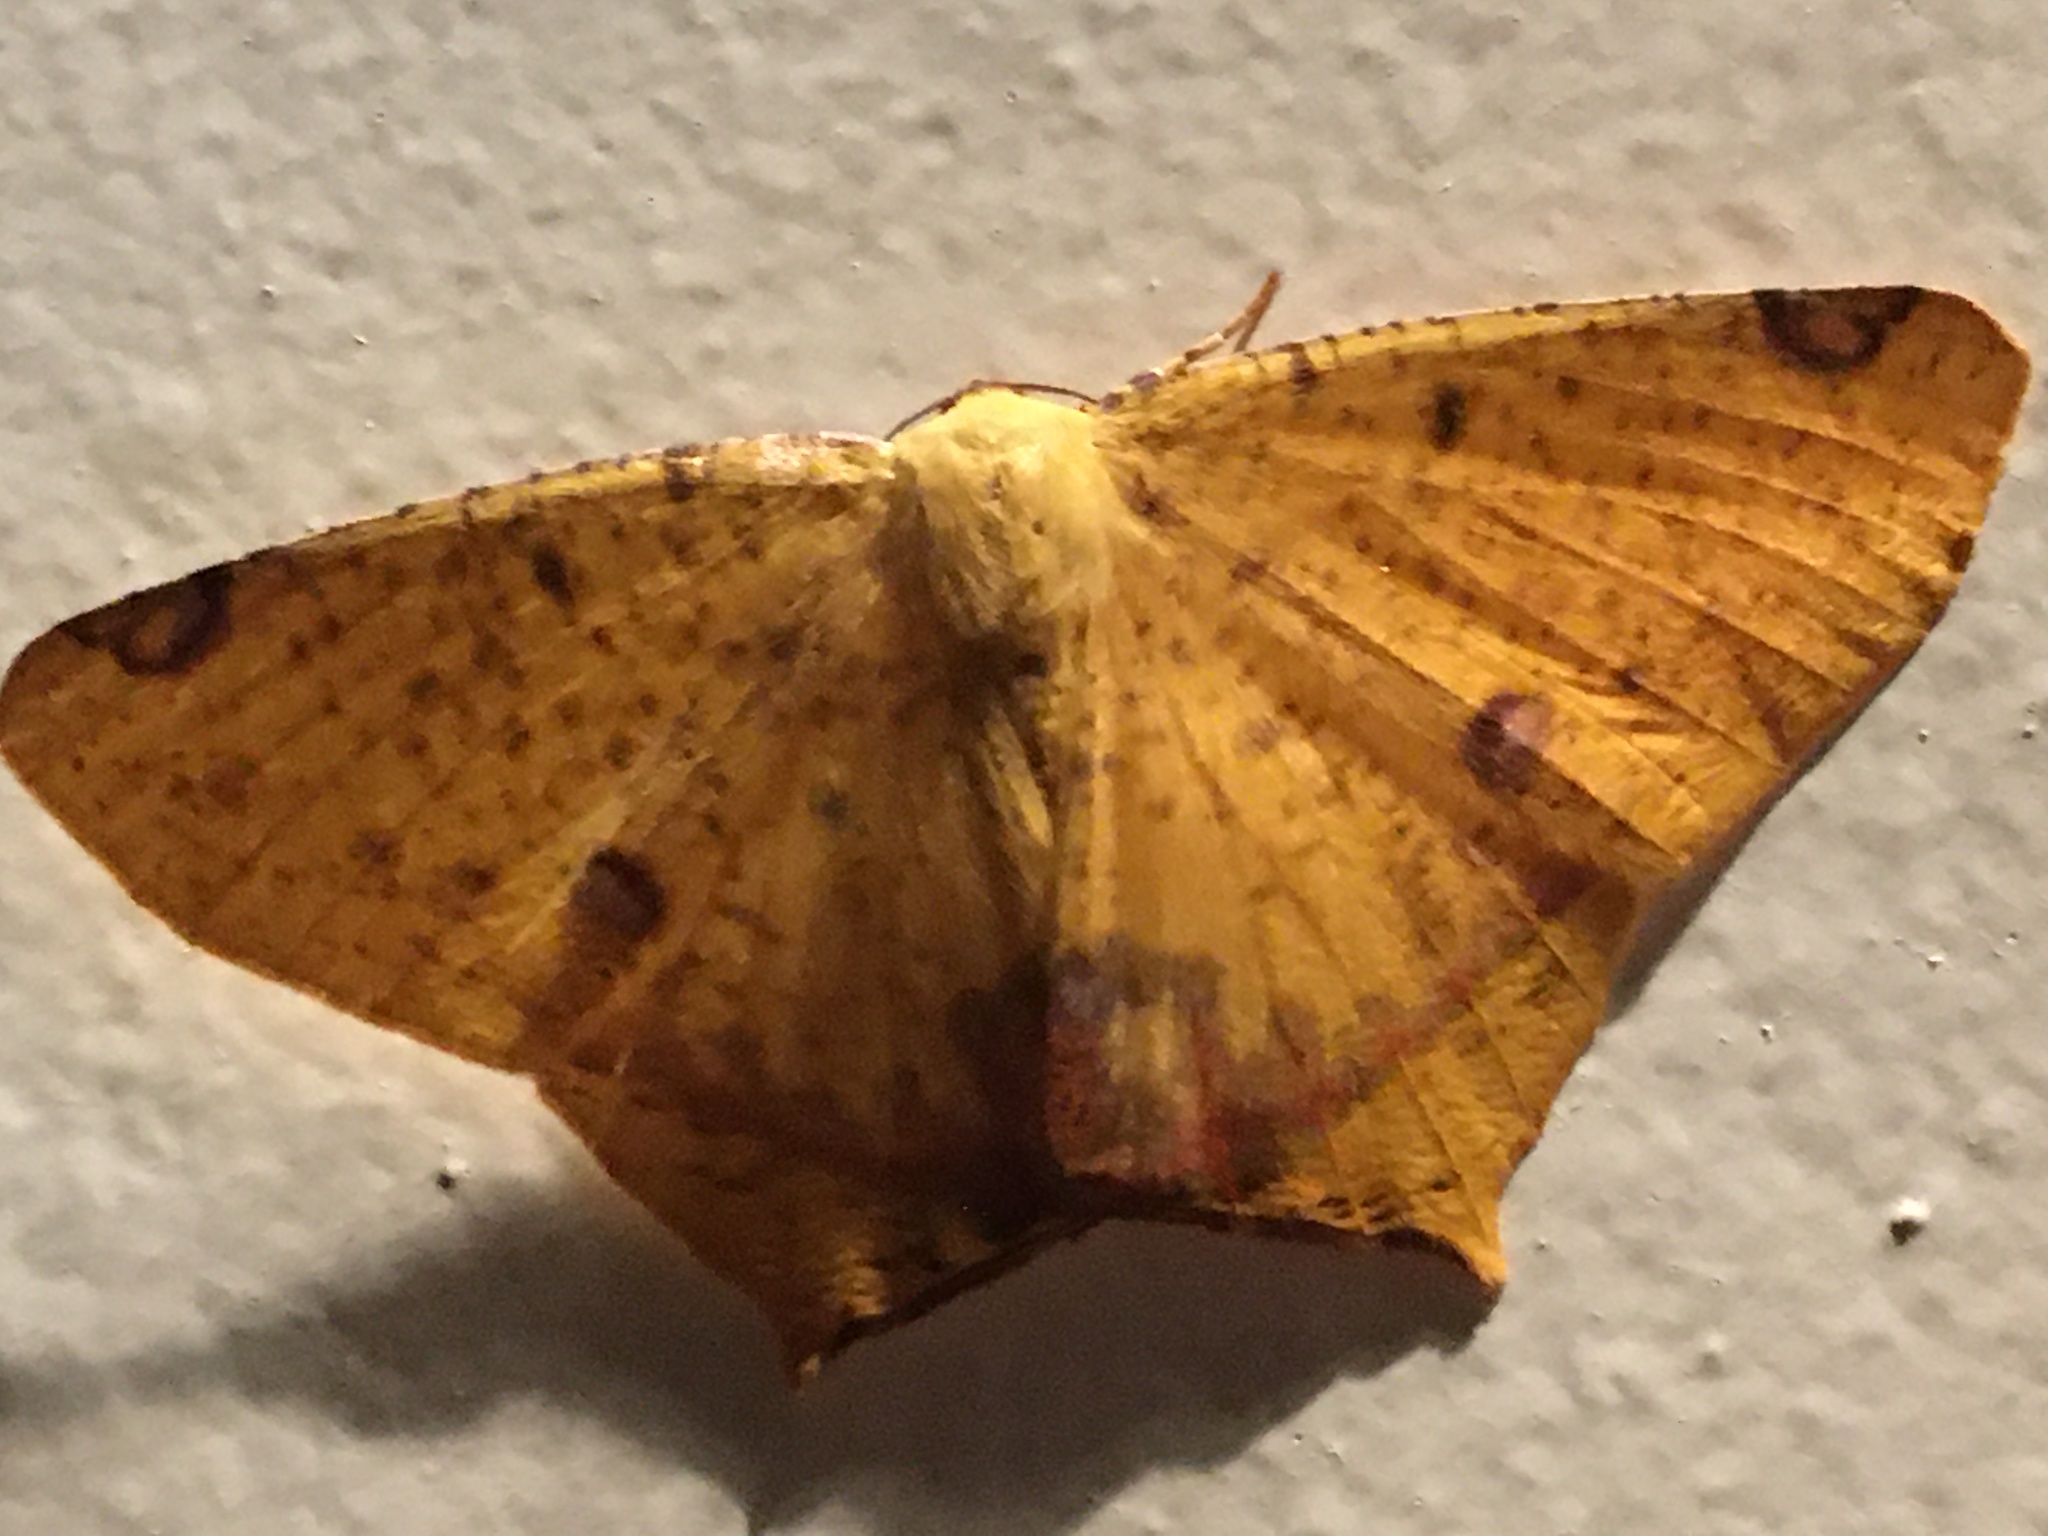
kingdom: Animalia
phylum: Arthropoda
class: Insecta
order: Lepidoptera
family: Geometridae
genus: Nepheloleuca
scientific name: Nepheloleuca politia
